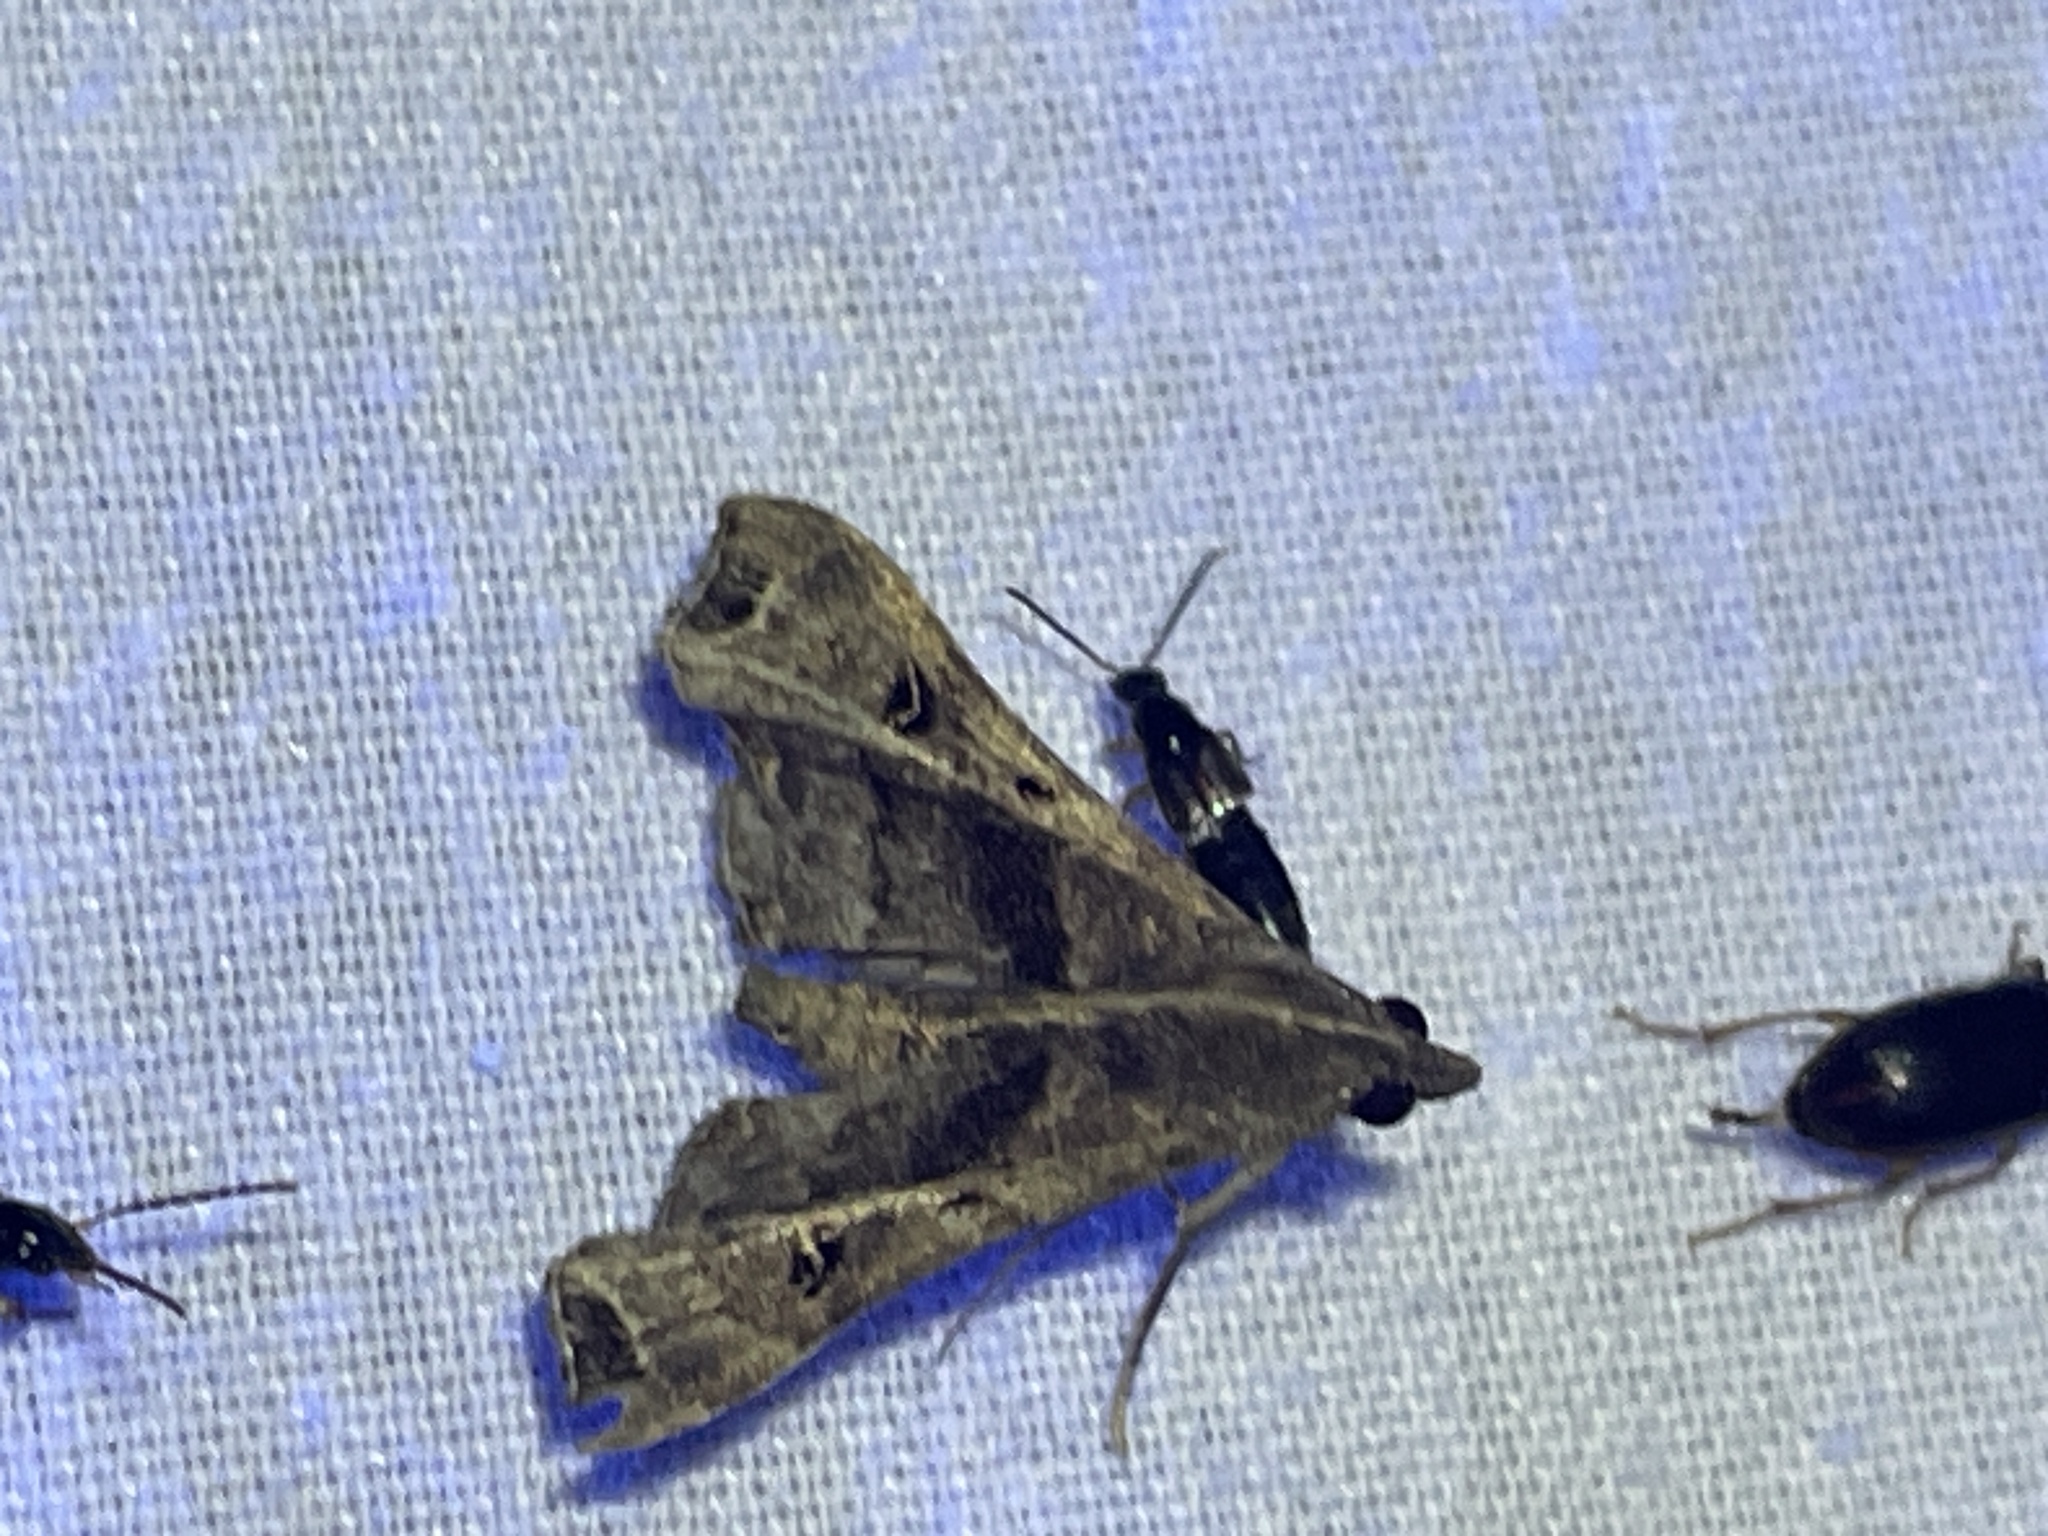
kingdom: Animalia
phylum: Arthropoda
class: Insecta
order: Lepidoptera
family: Erebidae
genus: Palthis
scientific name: Palthis asopialis
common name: Faint-spotted palthis moth
